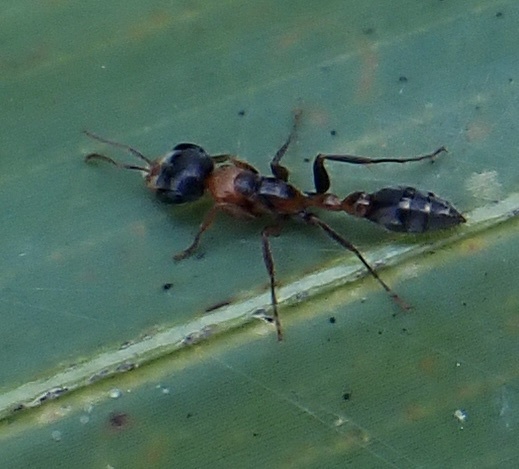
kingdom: Animalia
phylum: Arthropoda
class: Insecta
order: Hymenoptera
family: Formicidae
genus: Pseudomyrmex
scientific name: Pseudomyrmex gracilis
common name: Graceful twig ant
